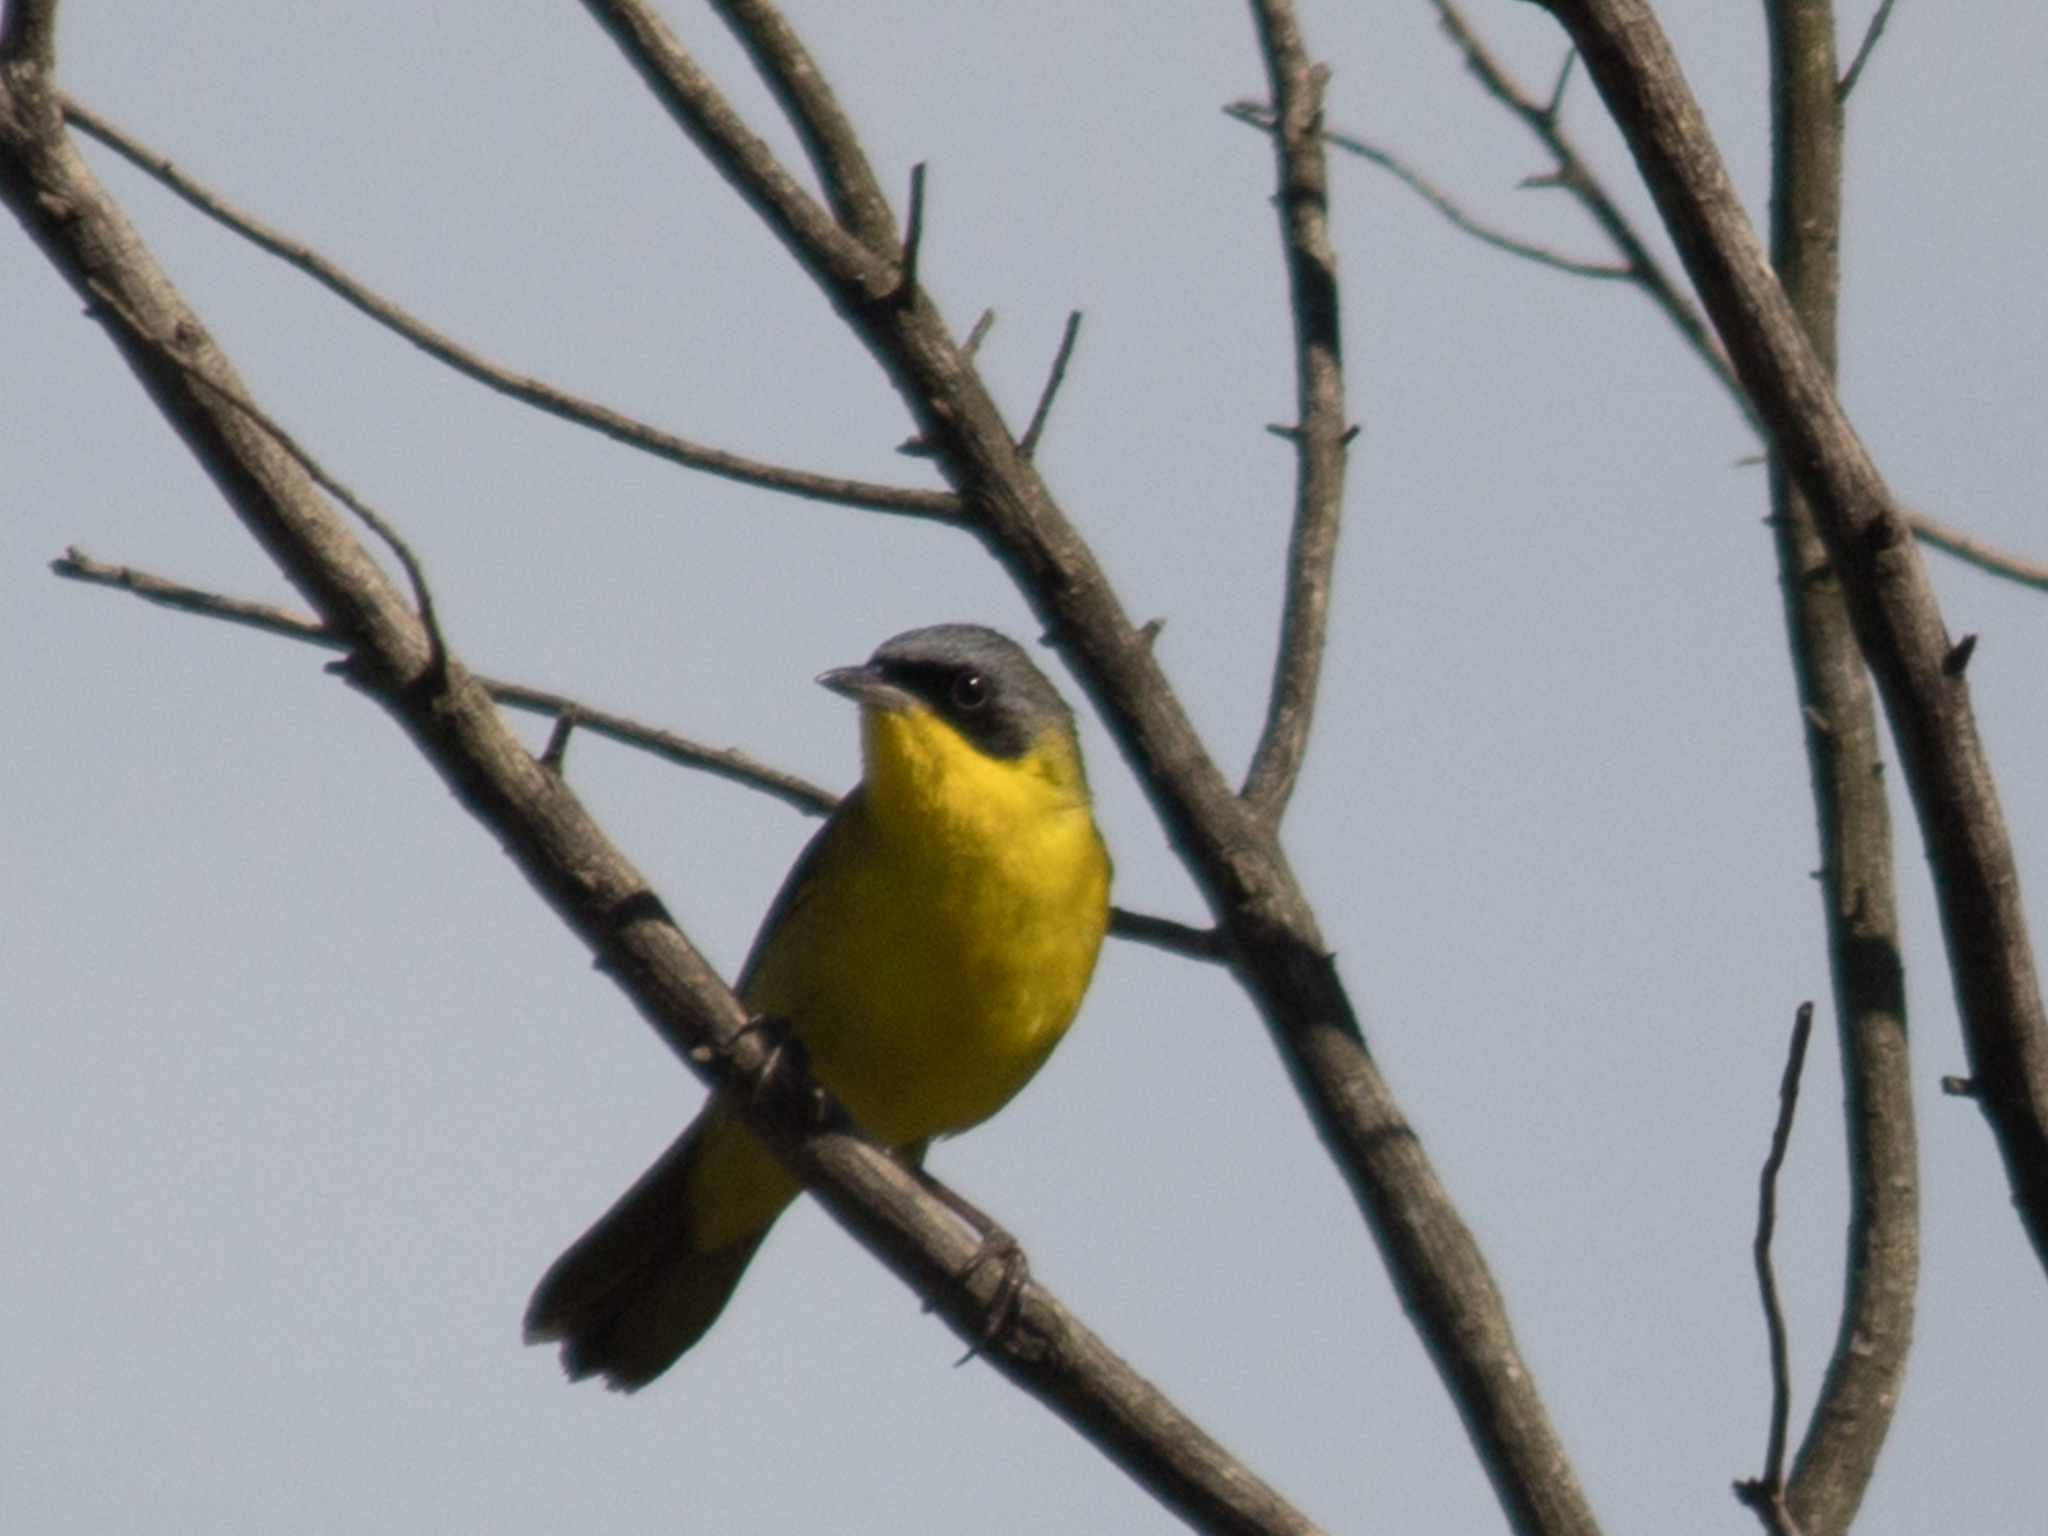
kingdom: Animalia
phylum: Chordata
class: Aves
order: Passeriformes
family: Parulidae
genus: Geothlypis
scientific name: Geothlypis velata
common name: Southern yellowthroat
